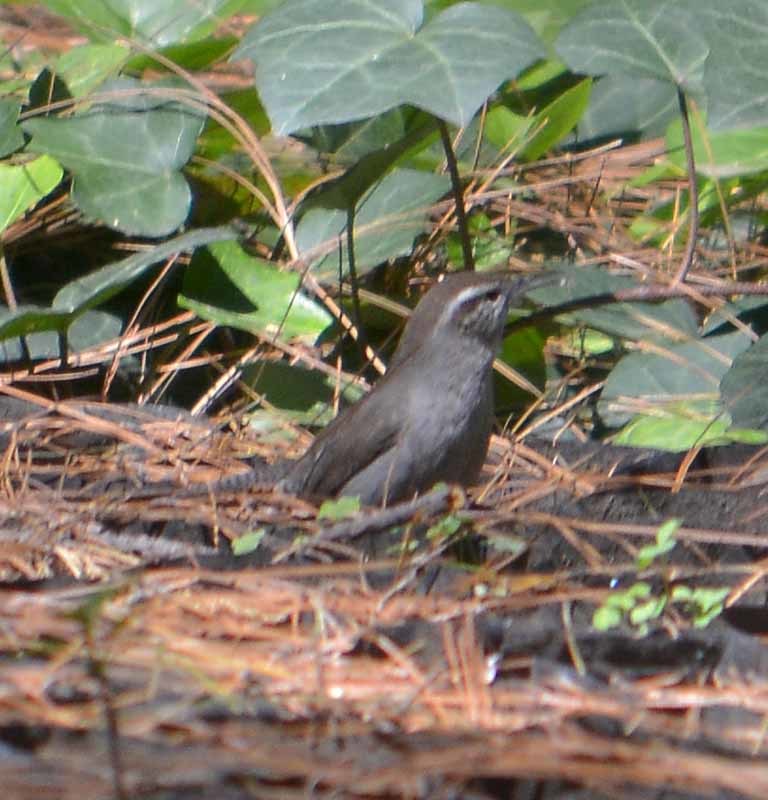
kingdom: Animalia
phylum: Chordata
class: Aves
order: Passeriformes
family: Troglodytidae
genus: Thryomanes
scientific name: Thryomanes bewickii
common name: Bewick's wren
